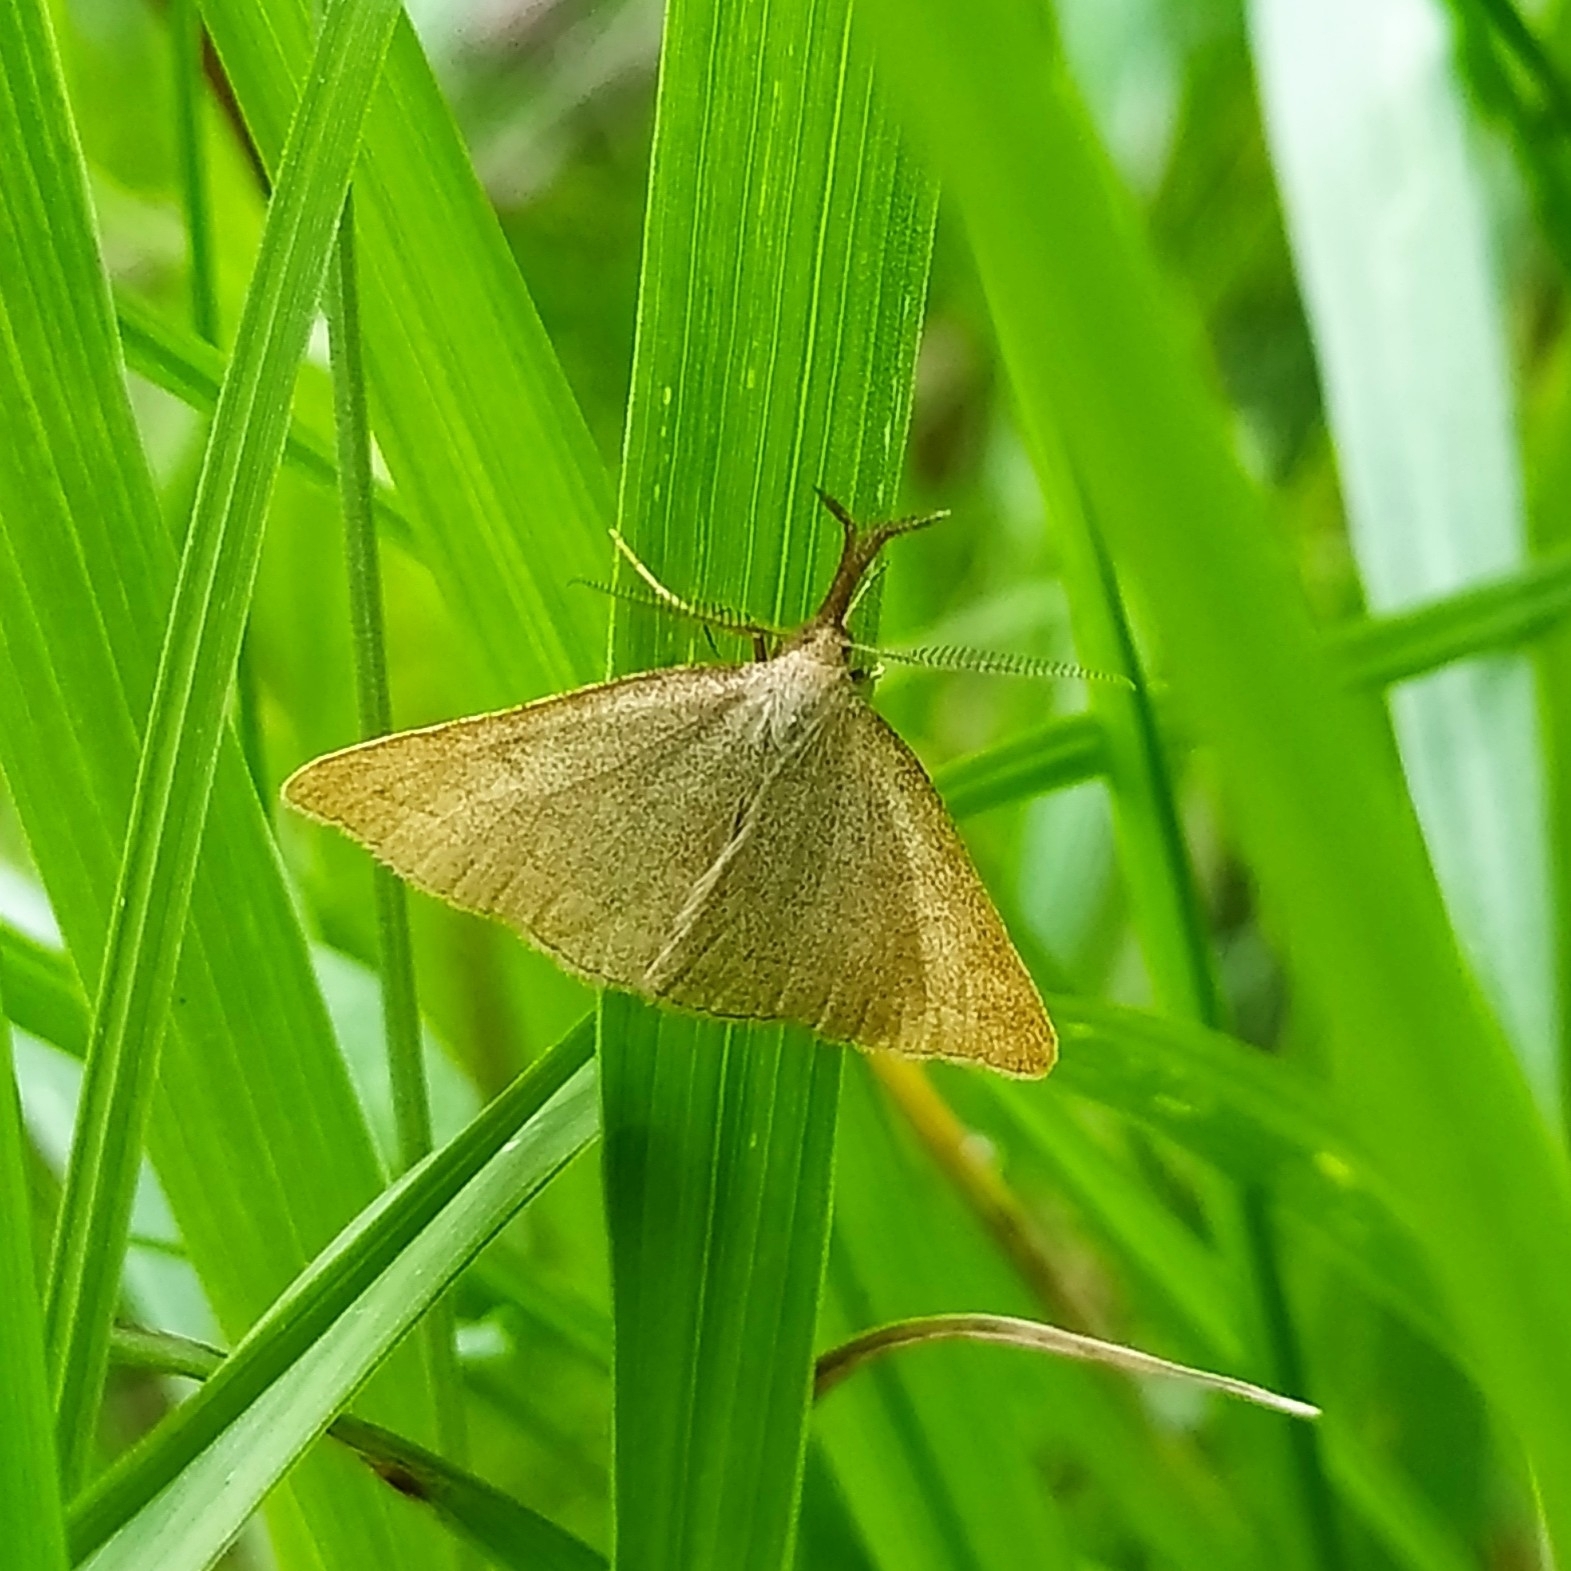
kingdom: Animalia
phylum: Arthropoda
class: Insecta
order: Lepidoptera
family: Erebidae
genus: Polypogon
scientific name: Polypogon tentacularia
